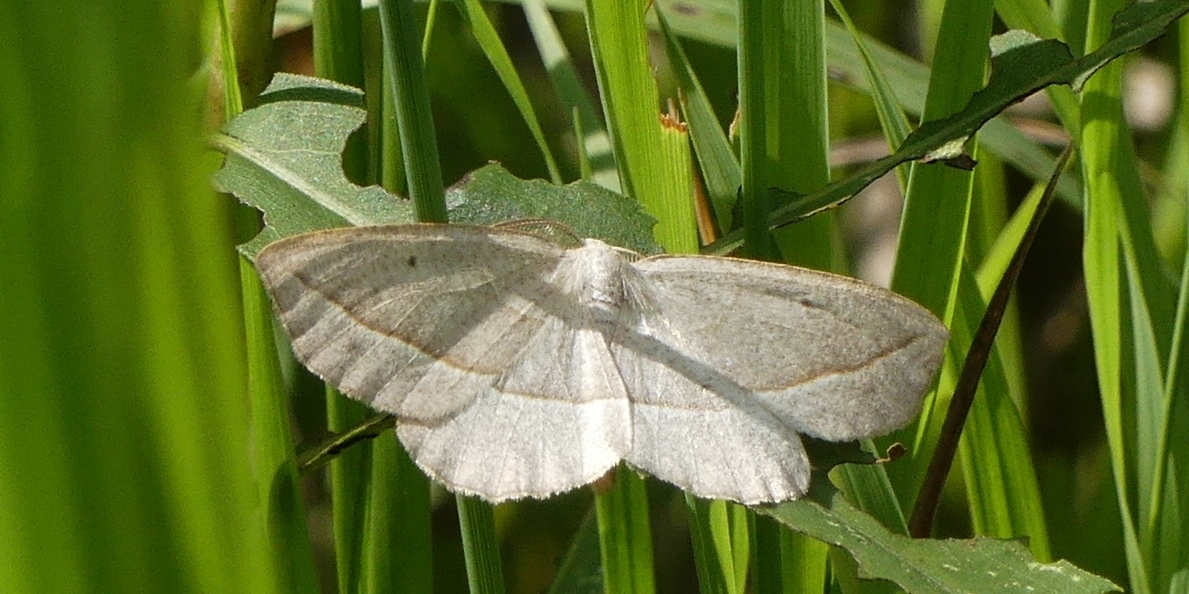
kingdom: Animalia
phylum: Arthropoda
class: Insecta
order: Lepidoptera
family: Geometridae
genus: Eusarca
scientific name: Eusarca confusaria
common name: Confused eusarca
